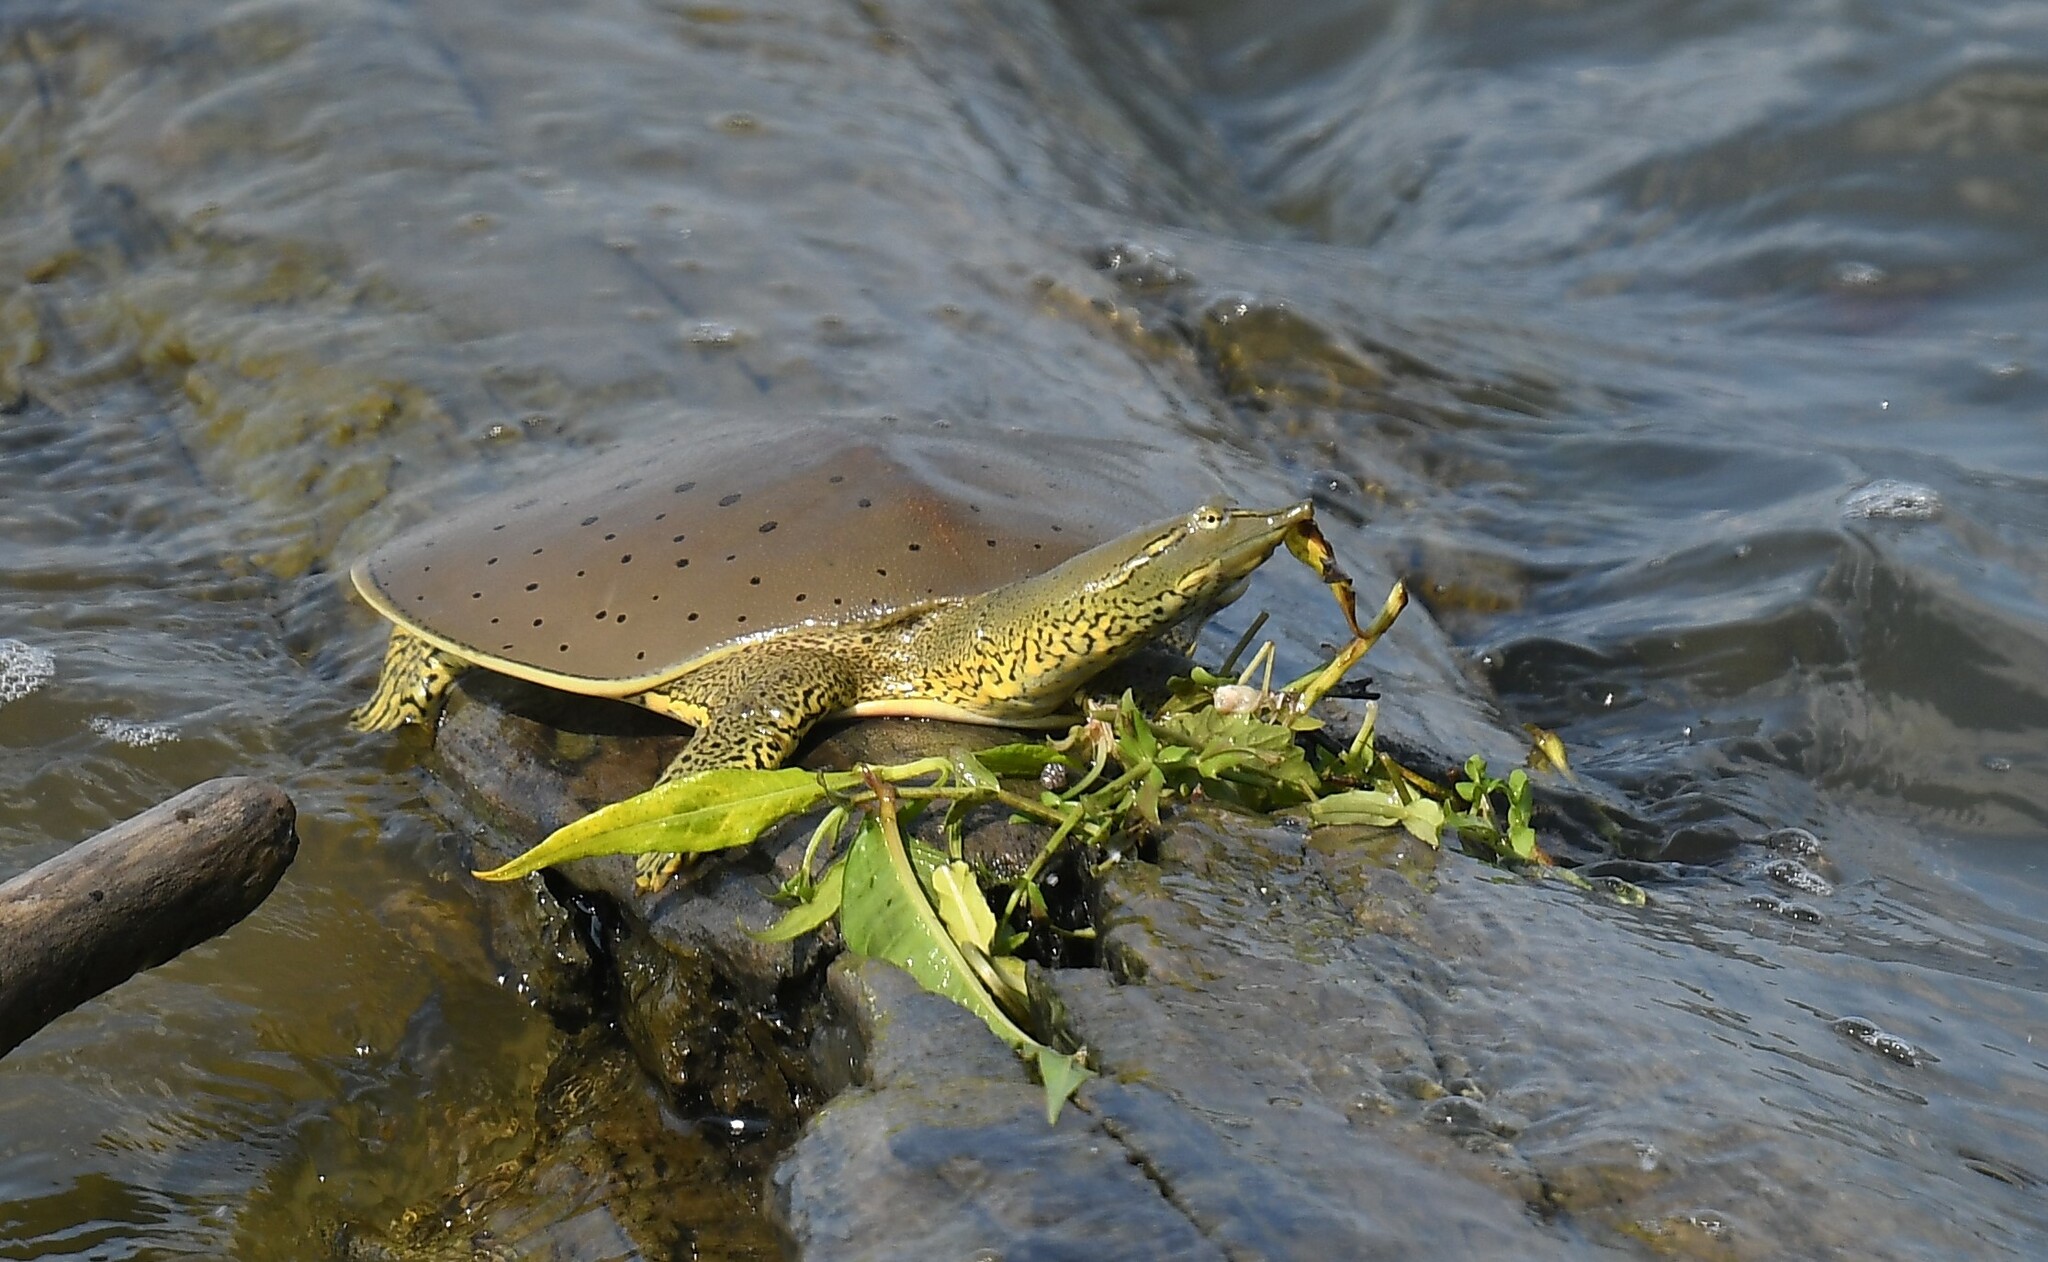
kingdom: Animalia
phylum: Chordata
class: Testudines
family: Trionychidae
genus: Apalone
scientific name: Apalone spinifera
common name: Spiny softshell turtle
